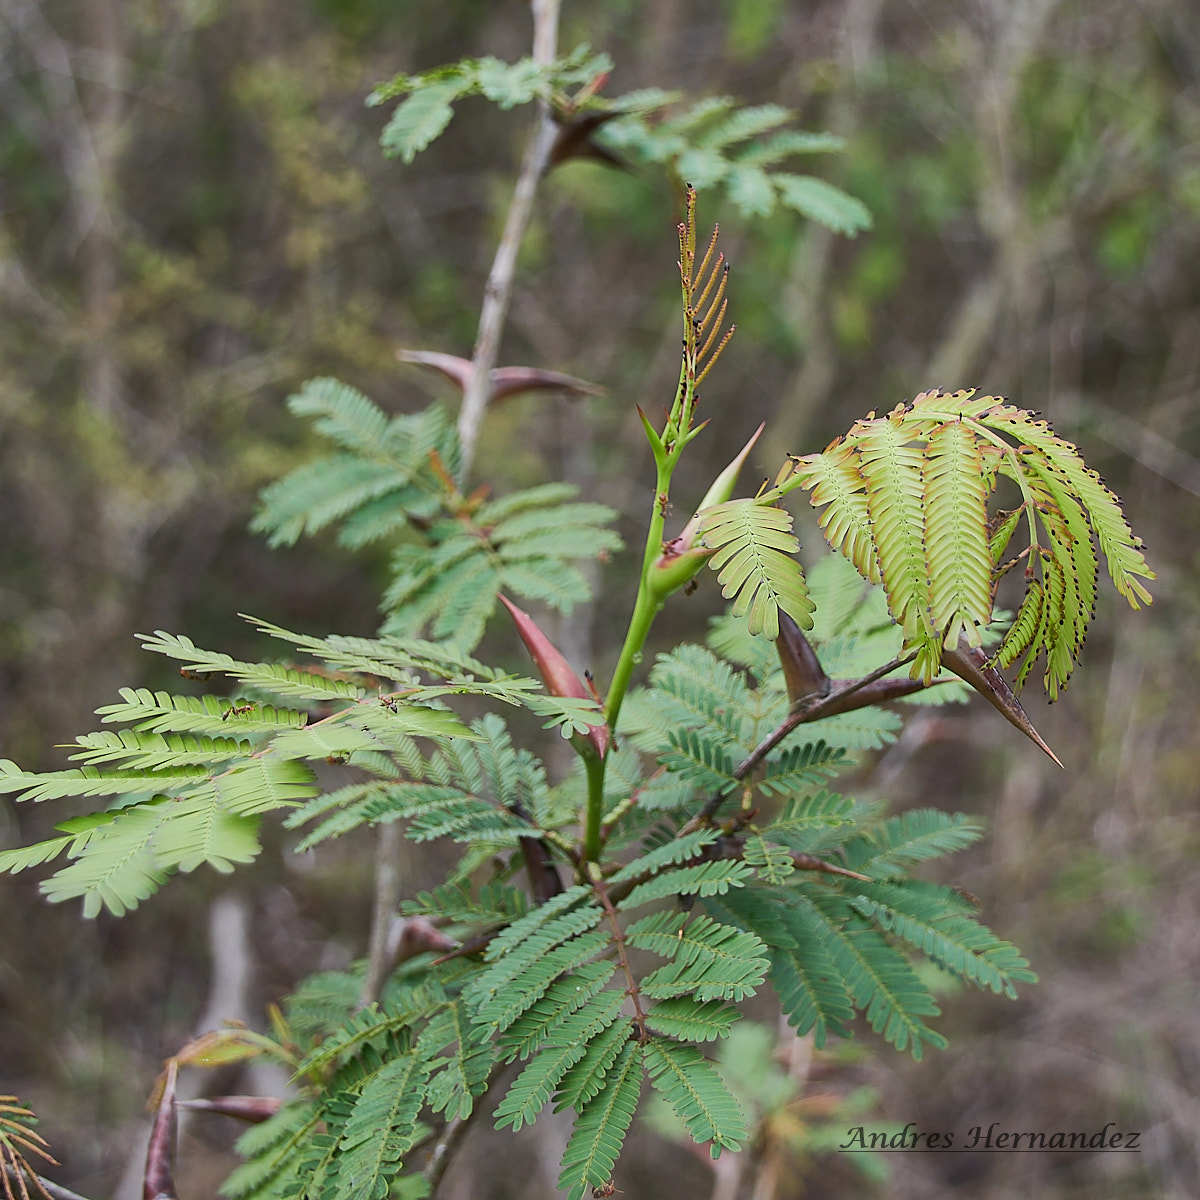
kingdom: Plantae
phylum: Tracheophyta
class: Magnoliopsida
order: Fabales
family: Fabaceae
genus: Vachellia
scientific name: Vachellia collinsii
